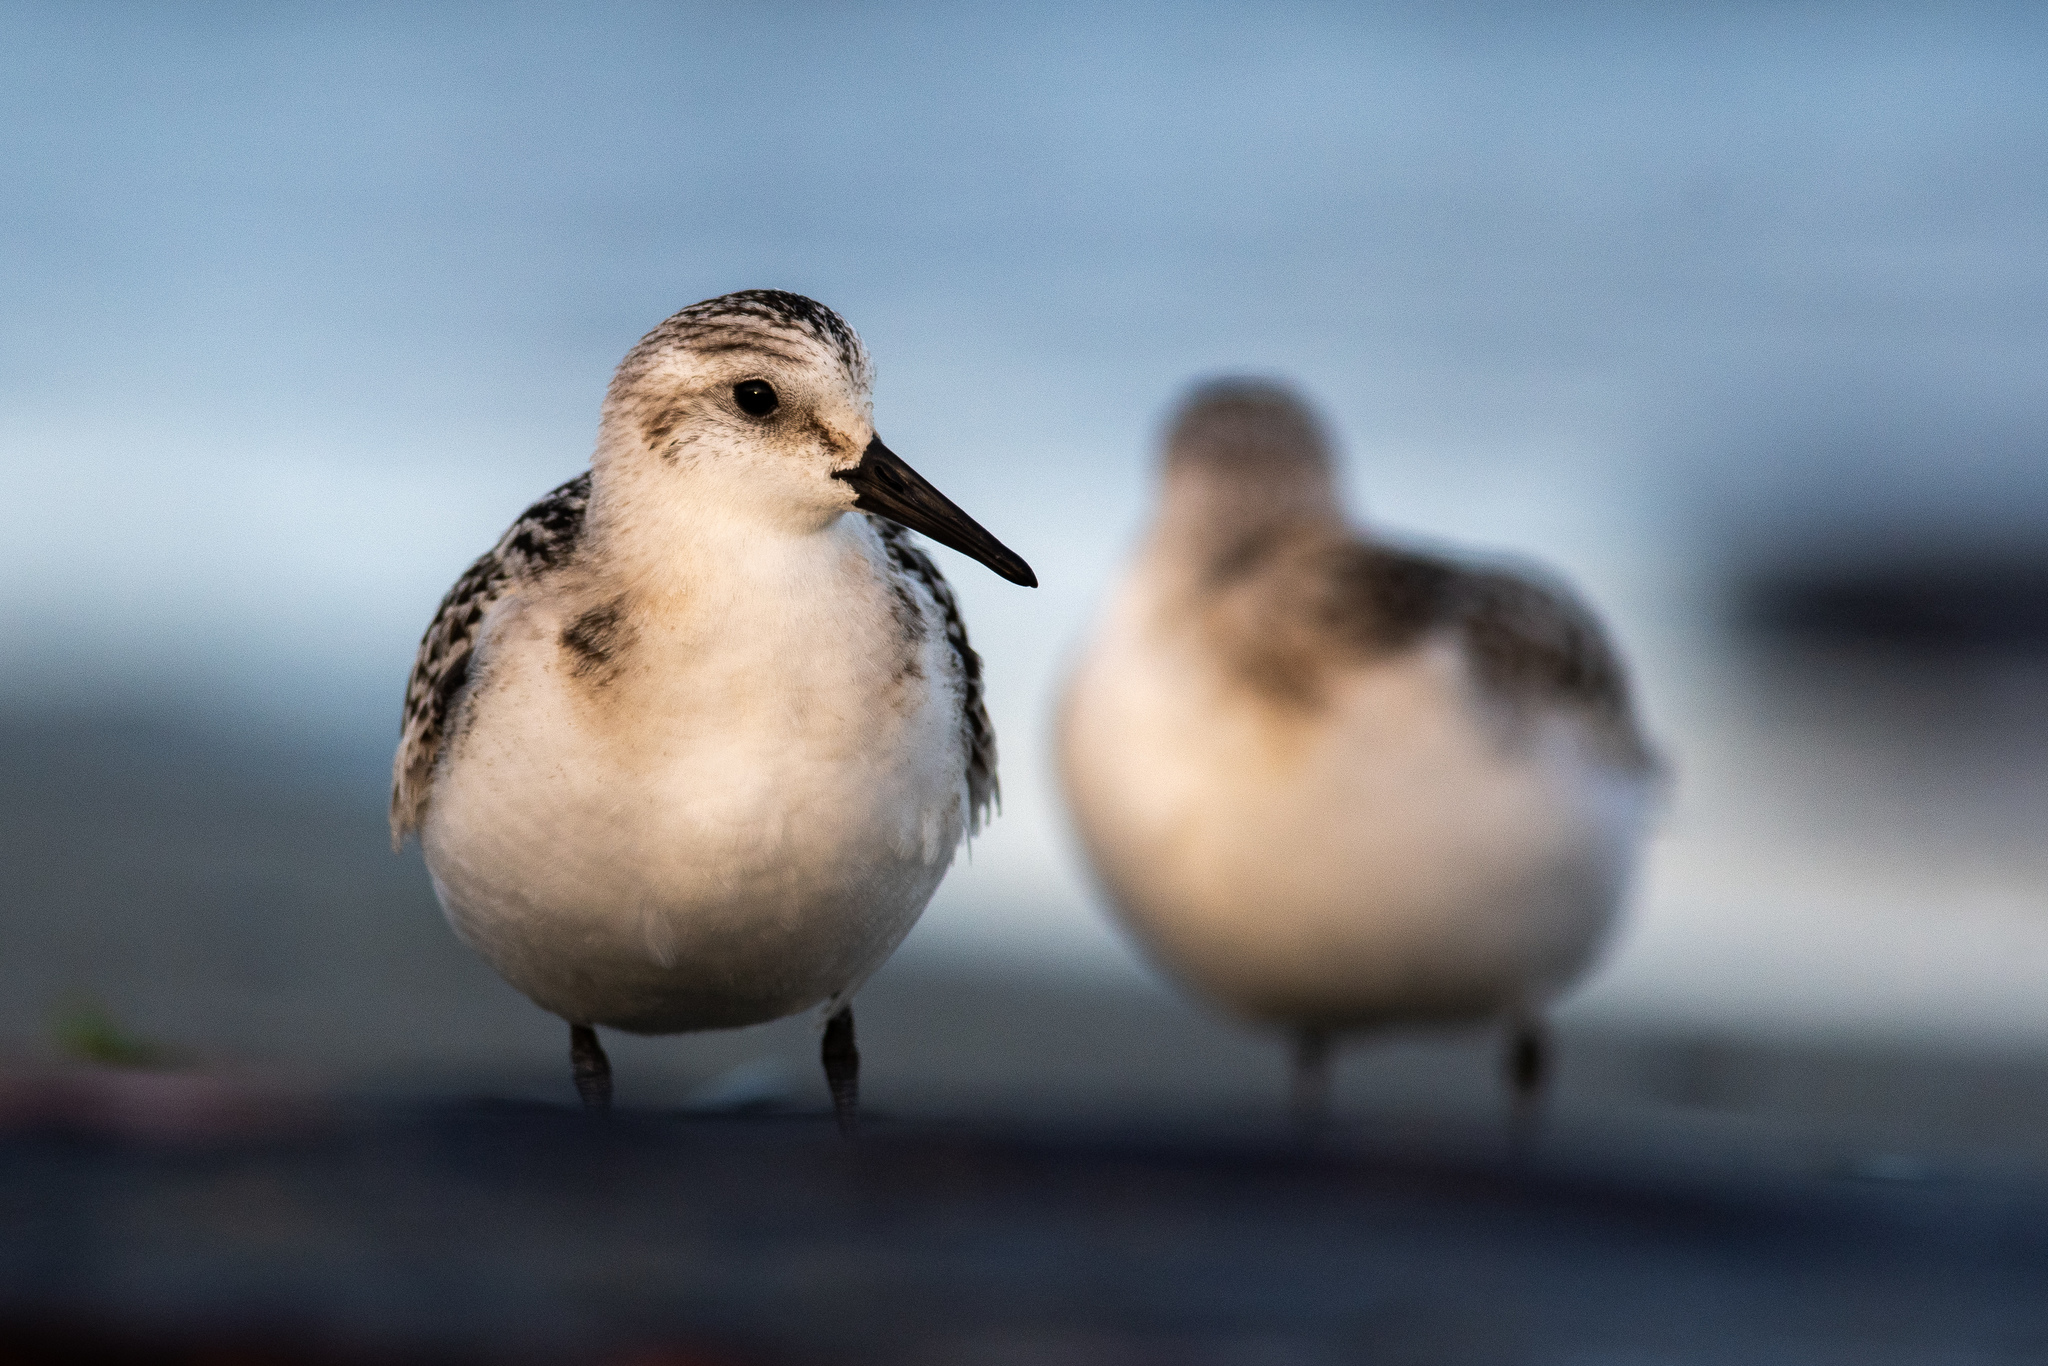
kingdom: Animalia
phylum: Chordata
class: Aves
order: Charadriiformes
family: Scolopacidae
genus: Calidris
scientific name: Calidris alba
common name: Sanderling
